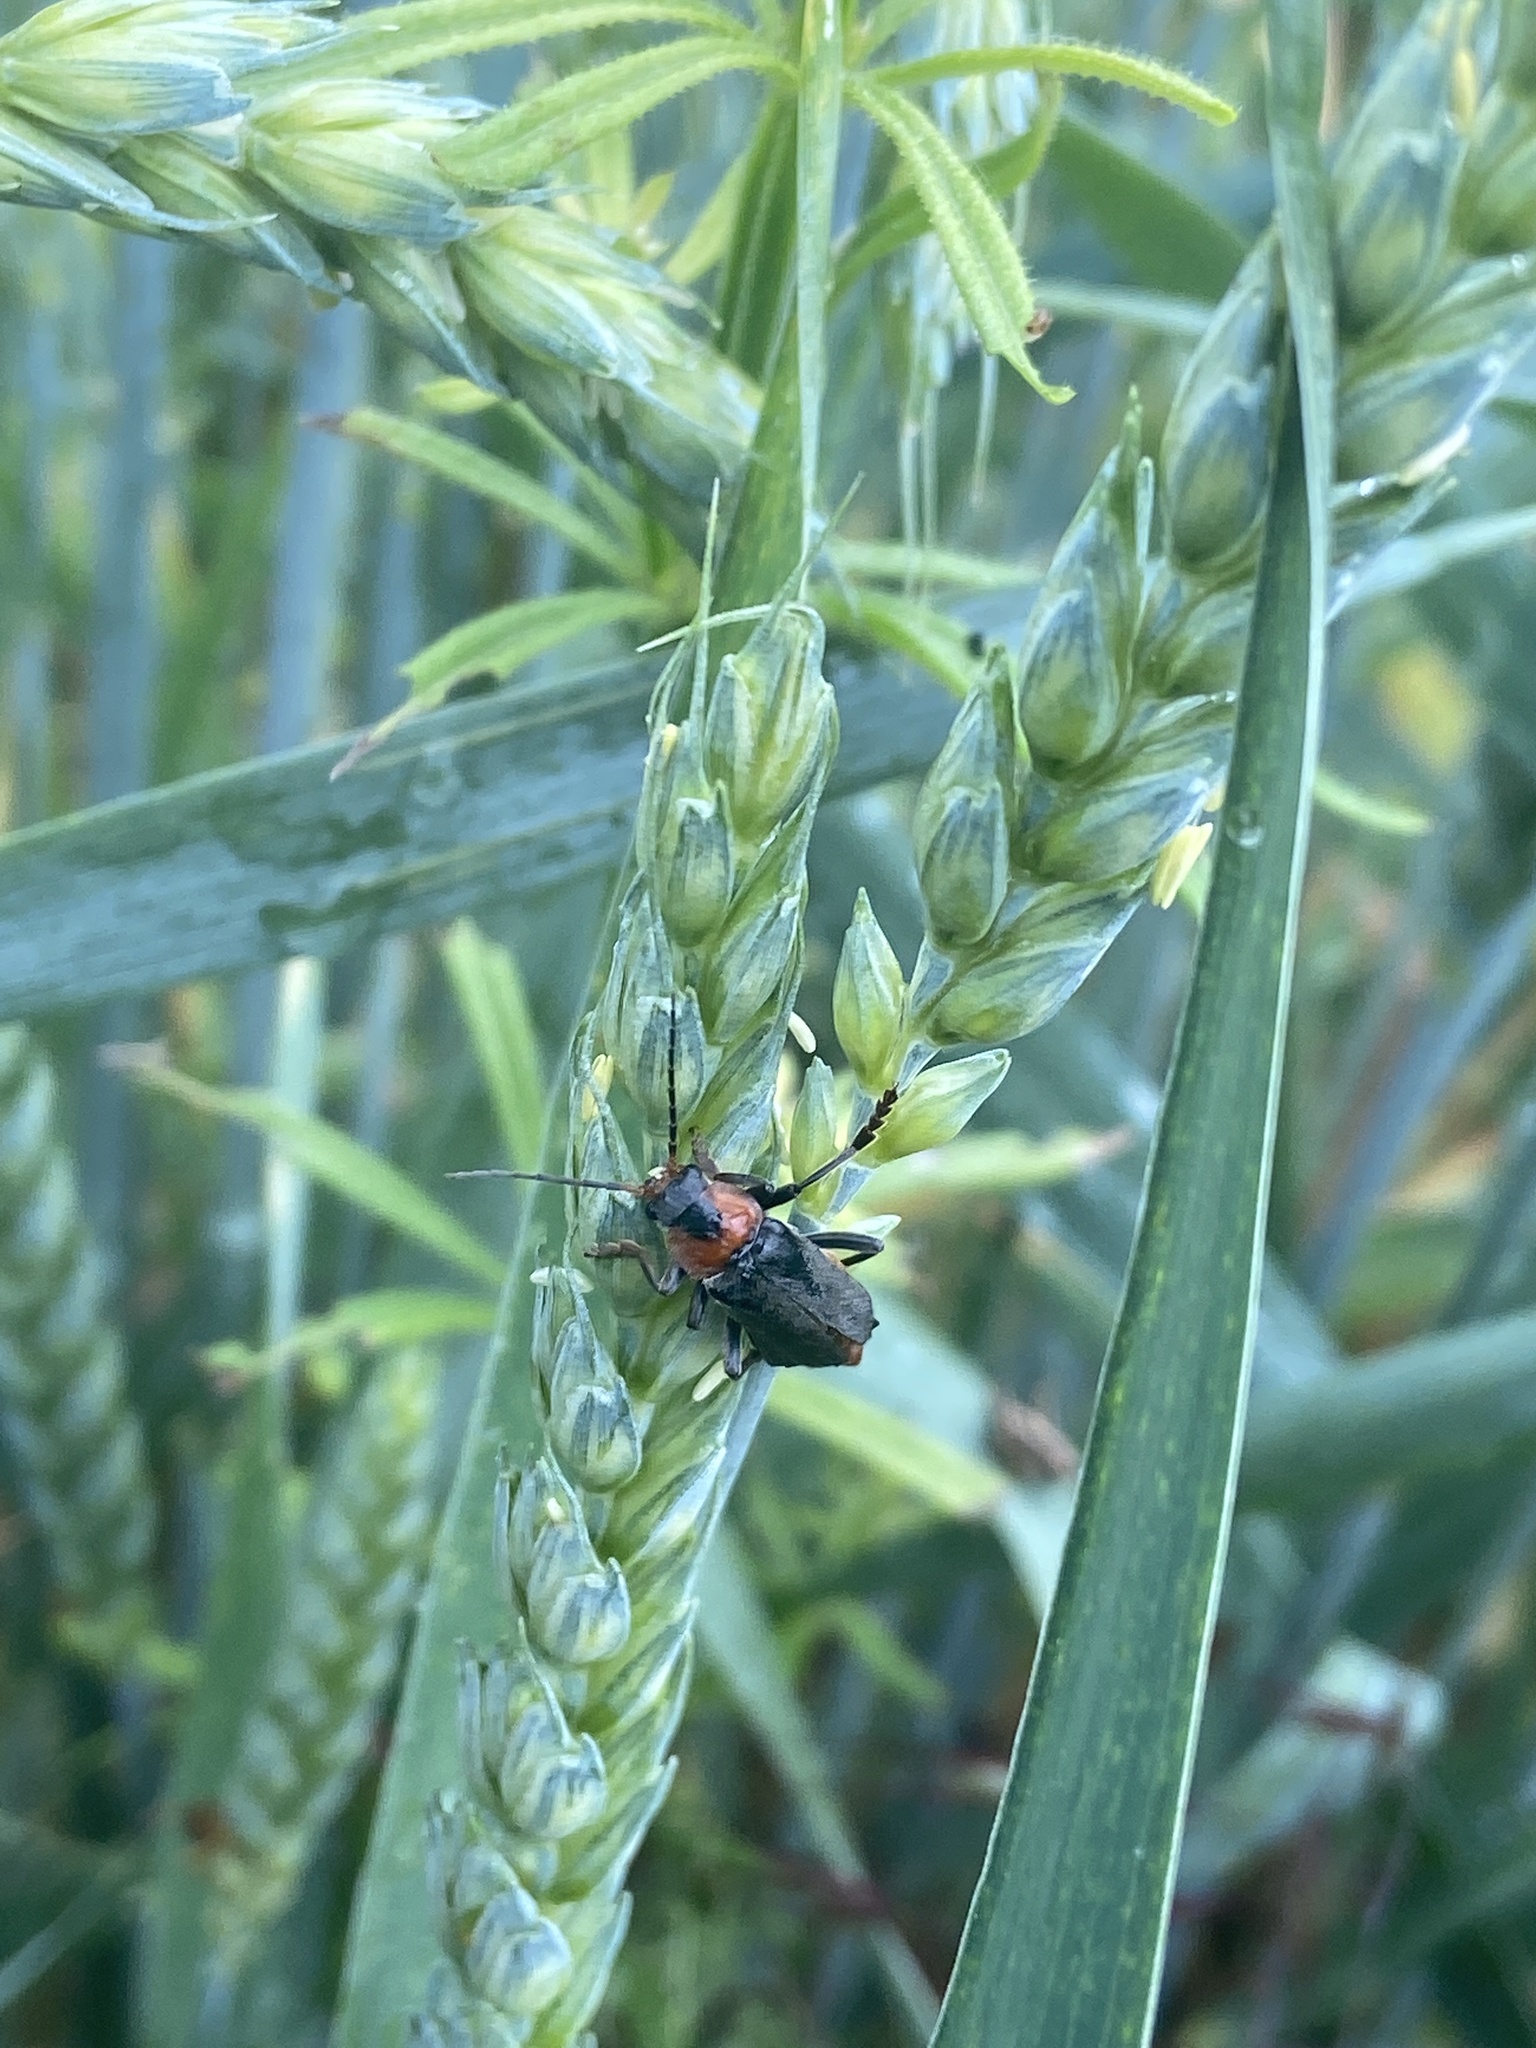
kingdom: Animalia
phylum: Arthropoda
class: Insecta
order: Coleoptera
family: Cantharidae
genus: Cantharis
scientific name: Cantharis fusca
